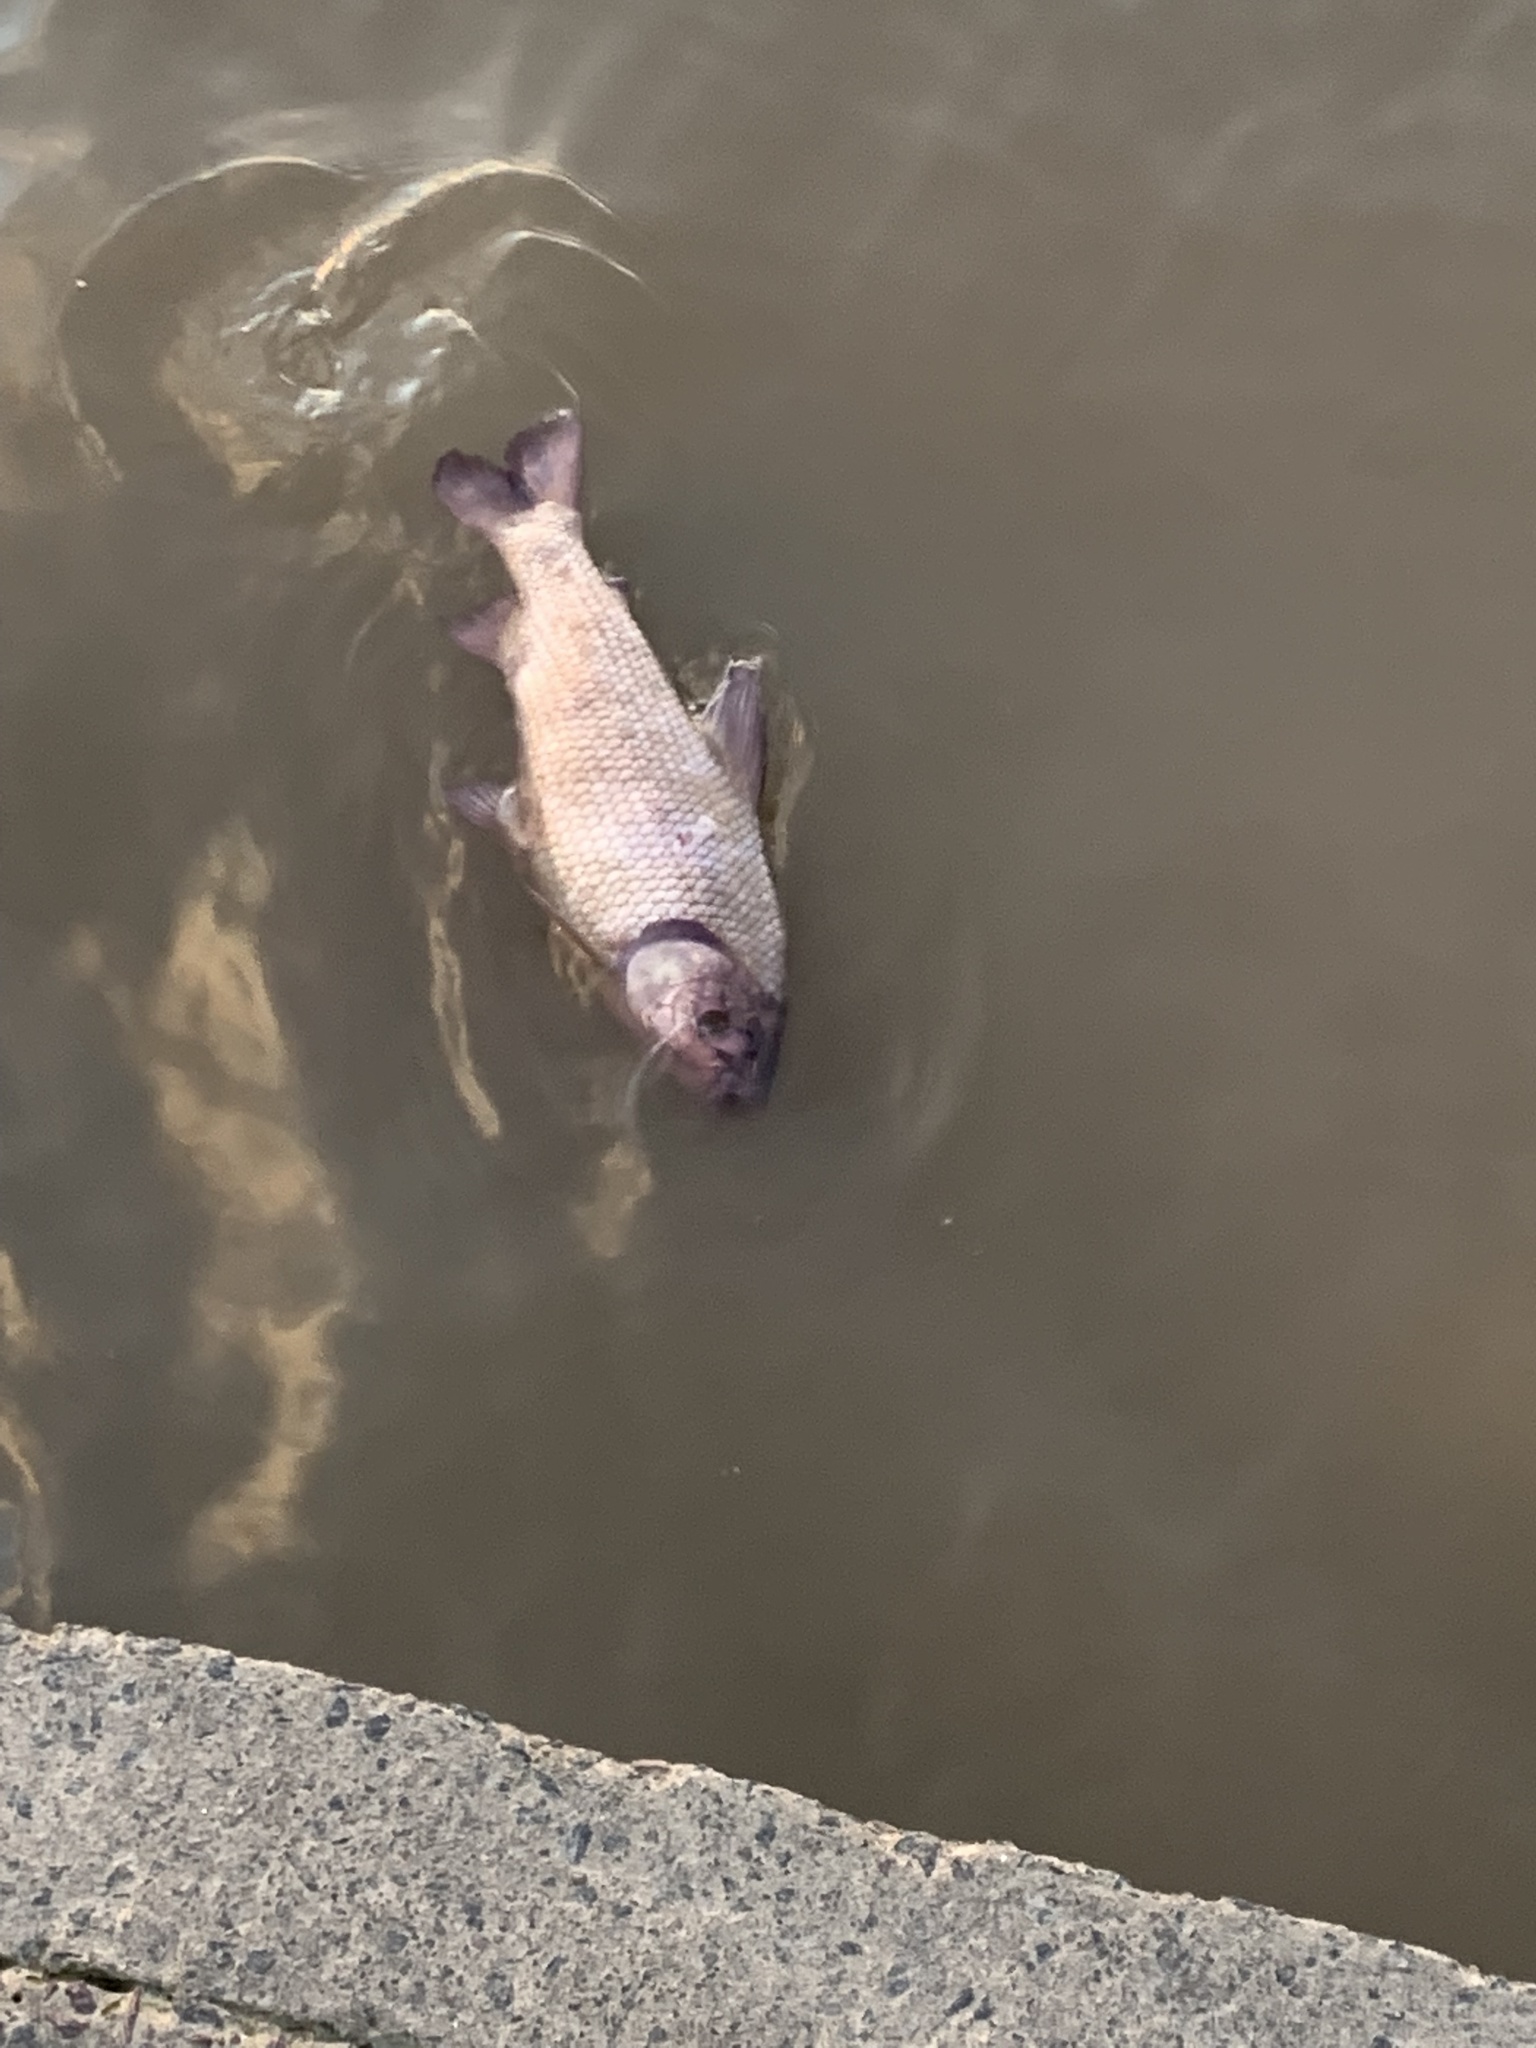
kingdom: Animalia
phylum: Chordata
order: Characiformes
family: Prochilodontidae
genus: Prochilodus
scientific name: Prochilodus lineatus
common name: Curimbata
